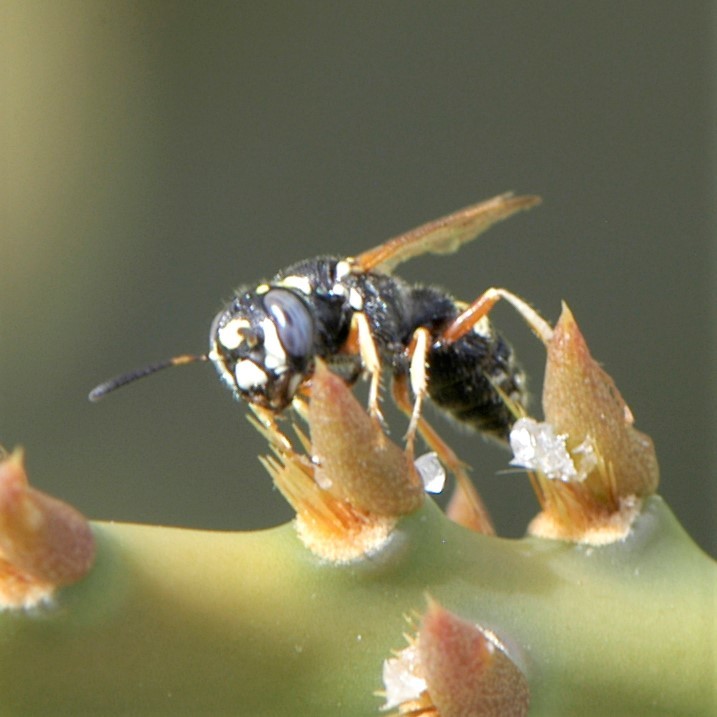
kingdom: Animalia
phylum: Arthropoda
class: Insecta
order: Hymenoptera
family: Crabronidae
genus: Philanthus
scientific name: Philanthus
